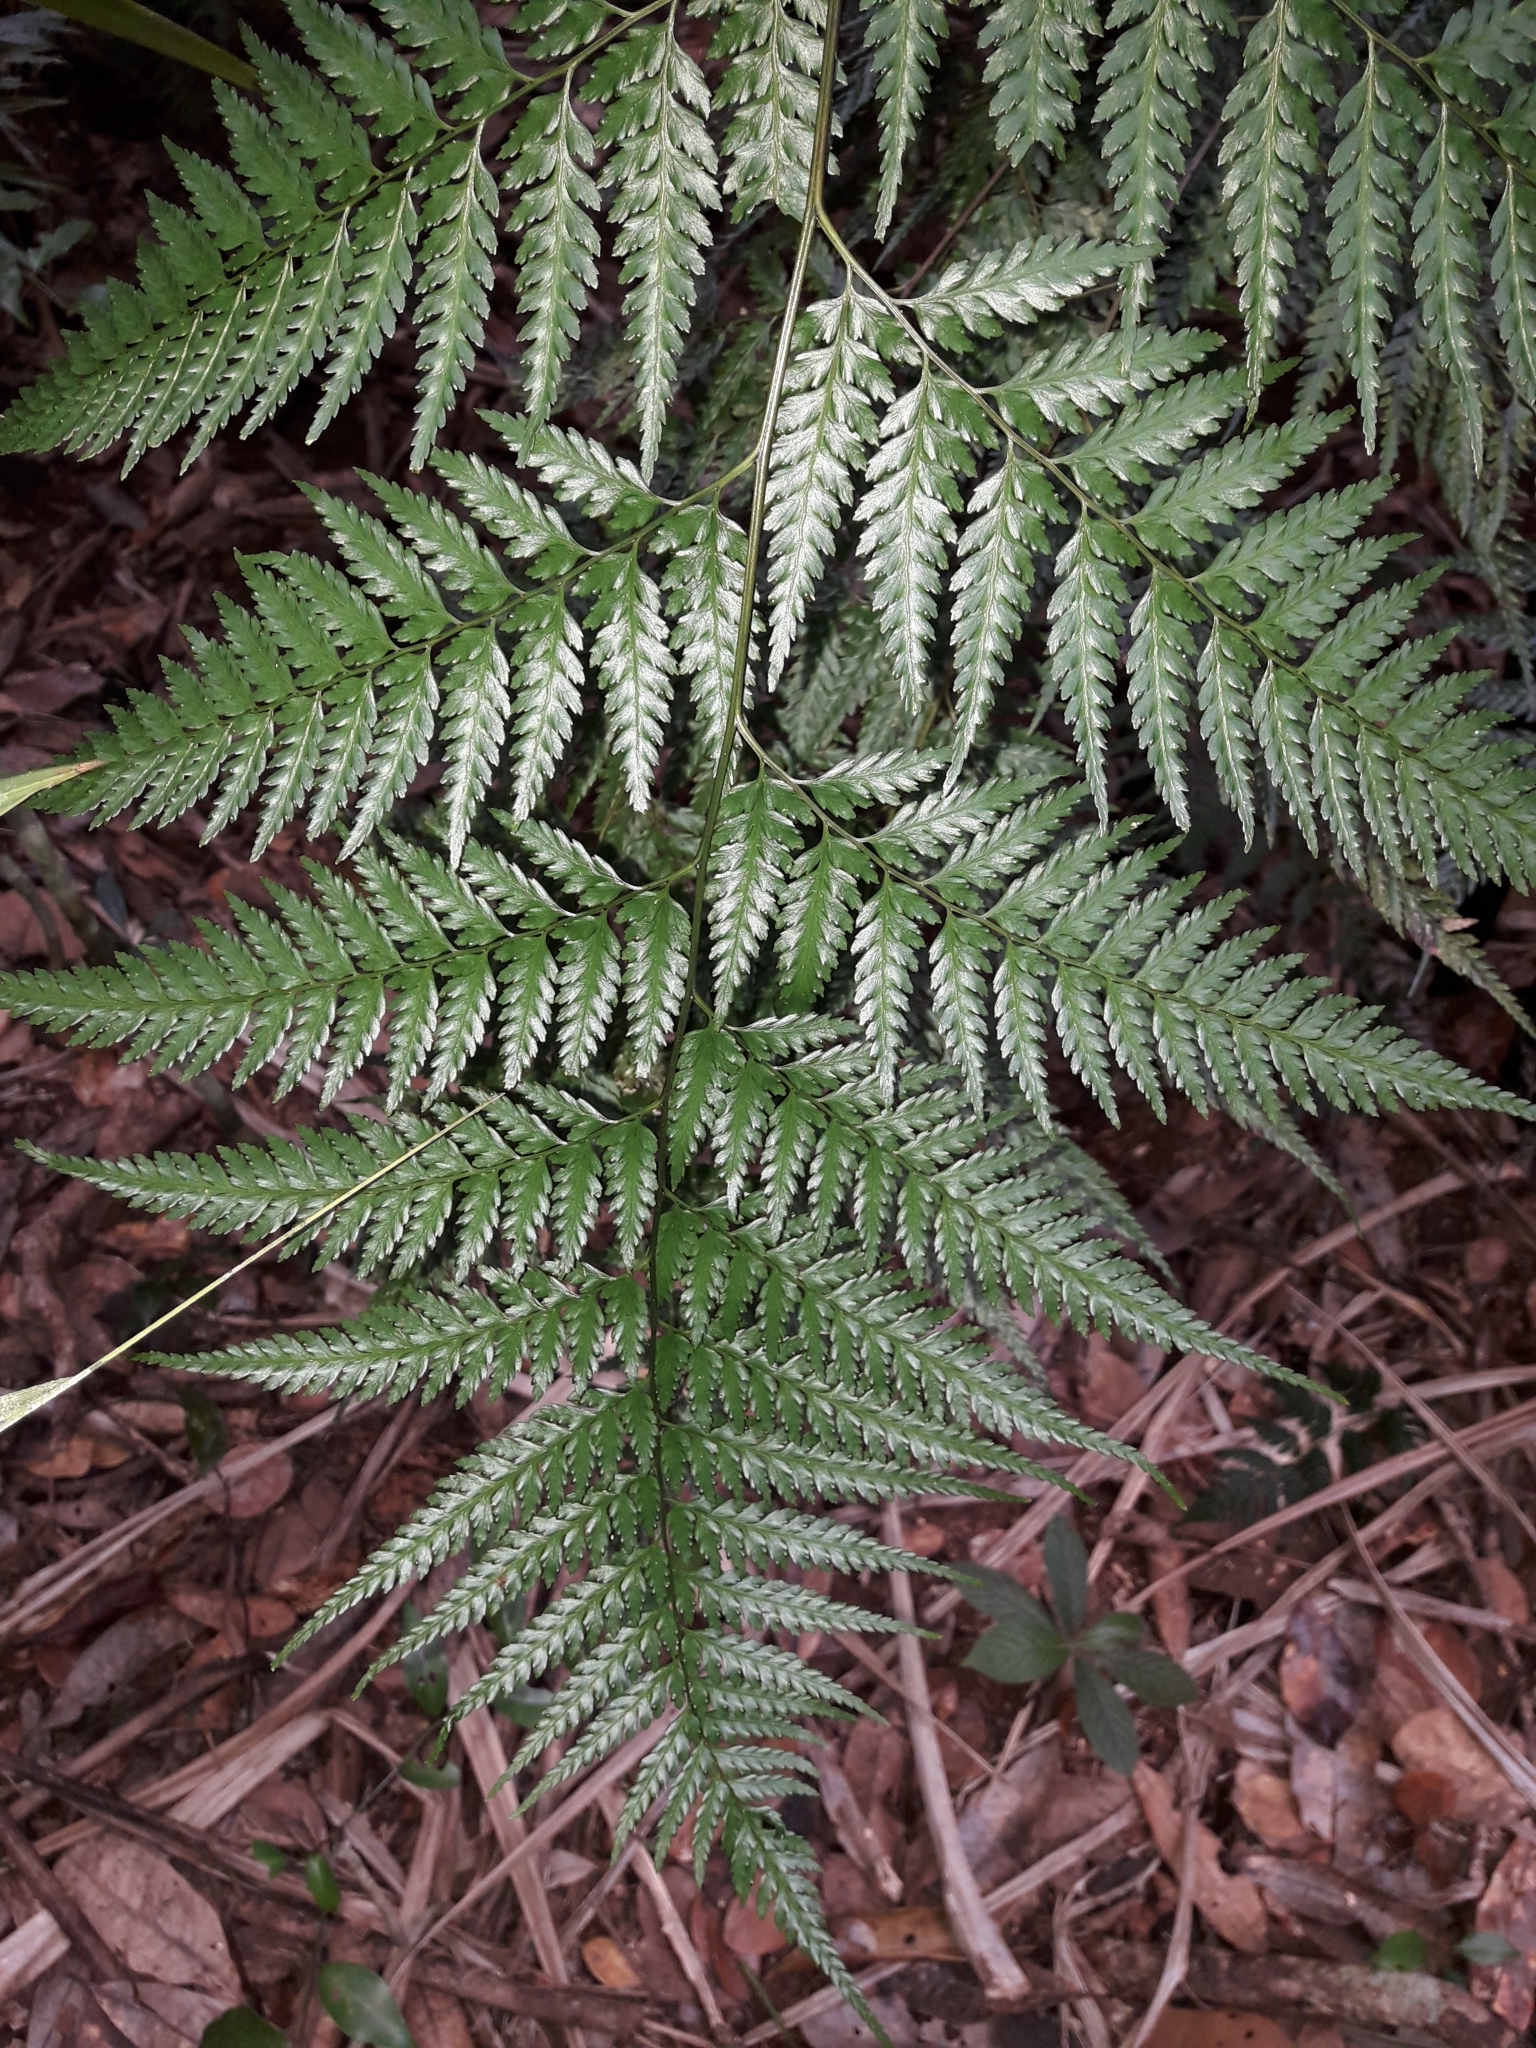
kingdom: Plantae
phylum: Tracheophyta
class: Polypodiopsida
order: Polypodiales
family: Saccolomataceae
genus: Orthiopteris
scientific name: Orthiopteris firma
